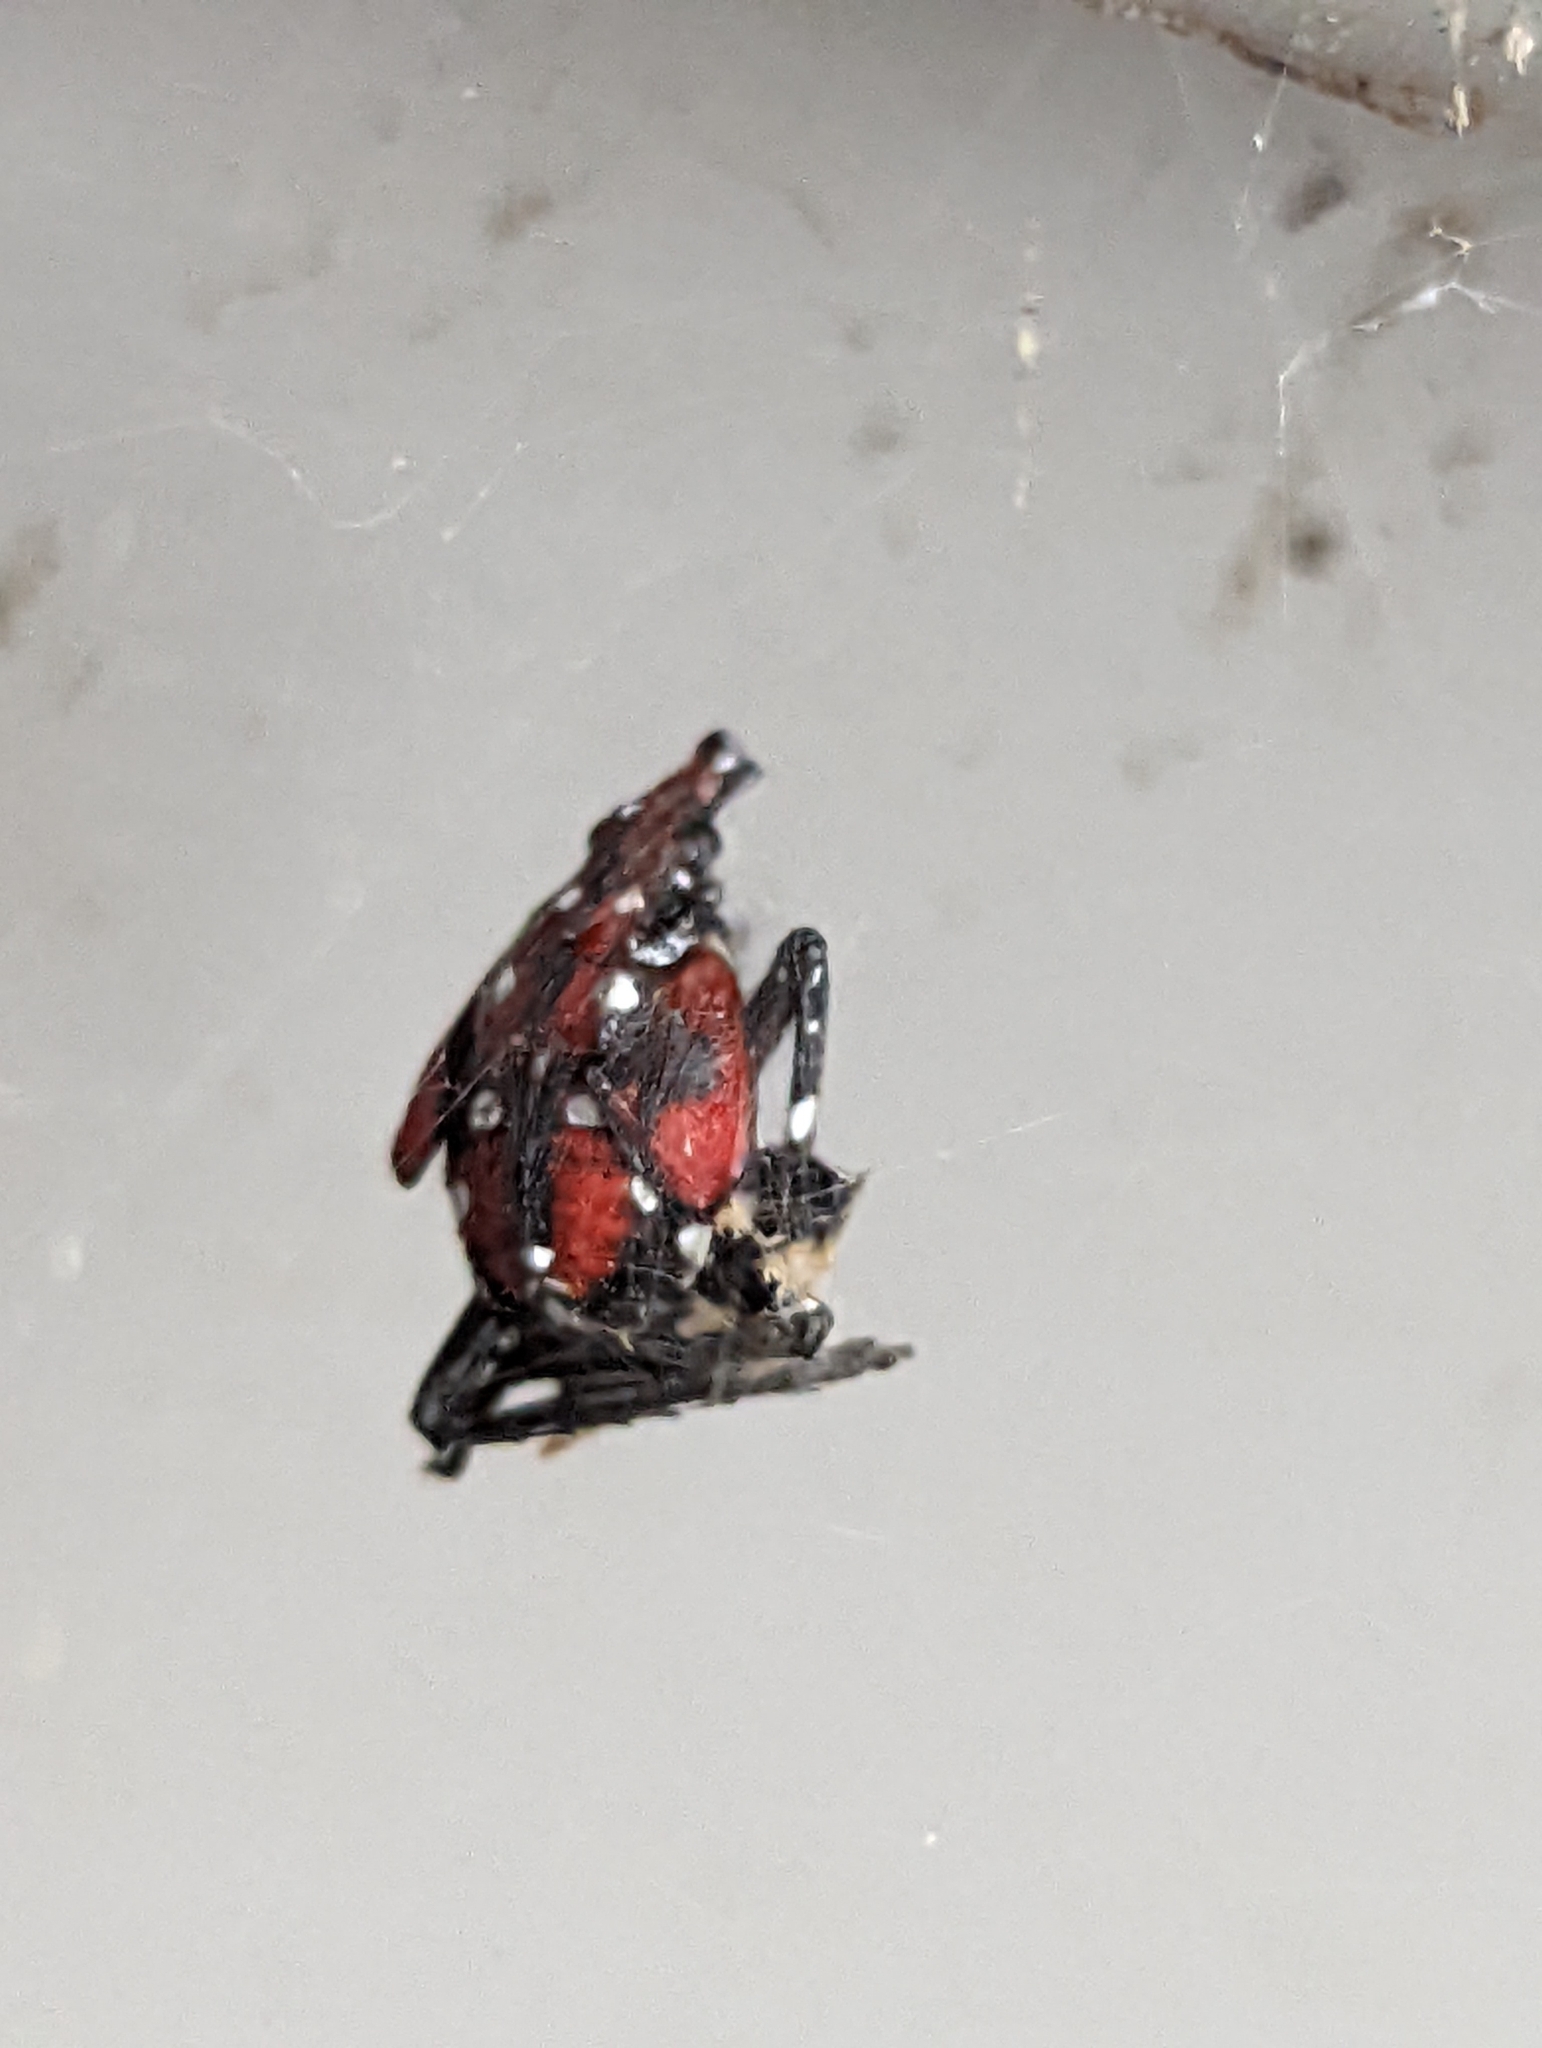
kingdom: Animalia
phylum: Arthropoda
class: Insecta
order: Hemiptera
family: Fulgoridae
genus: Lycorma
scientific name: Lycorma delicatula
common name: Spotted lanternfly
